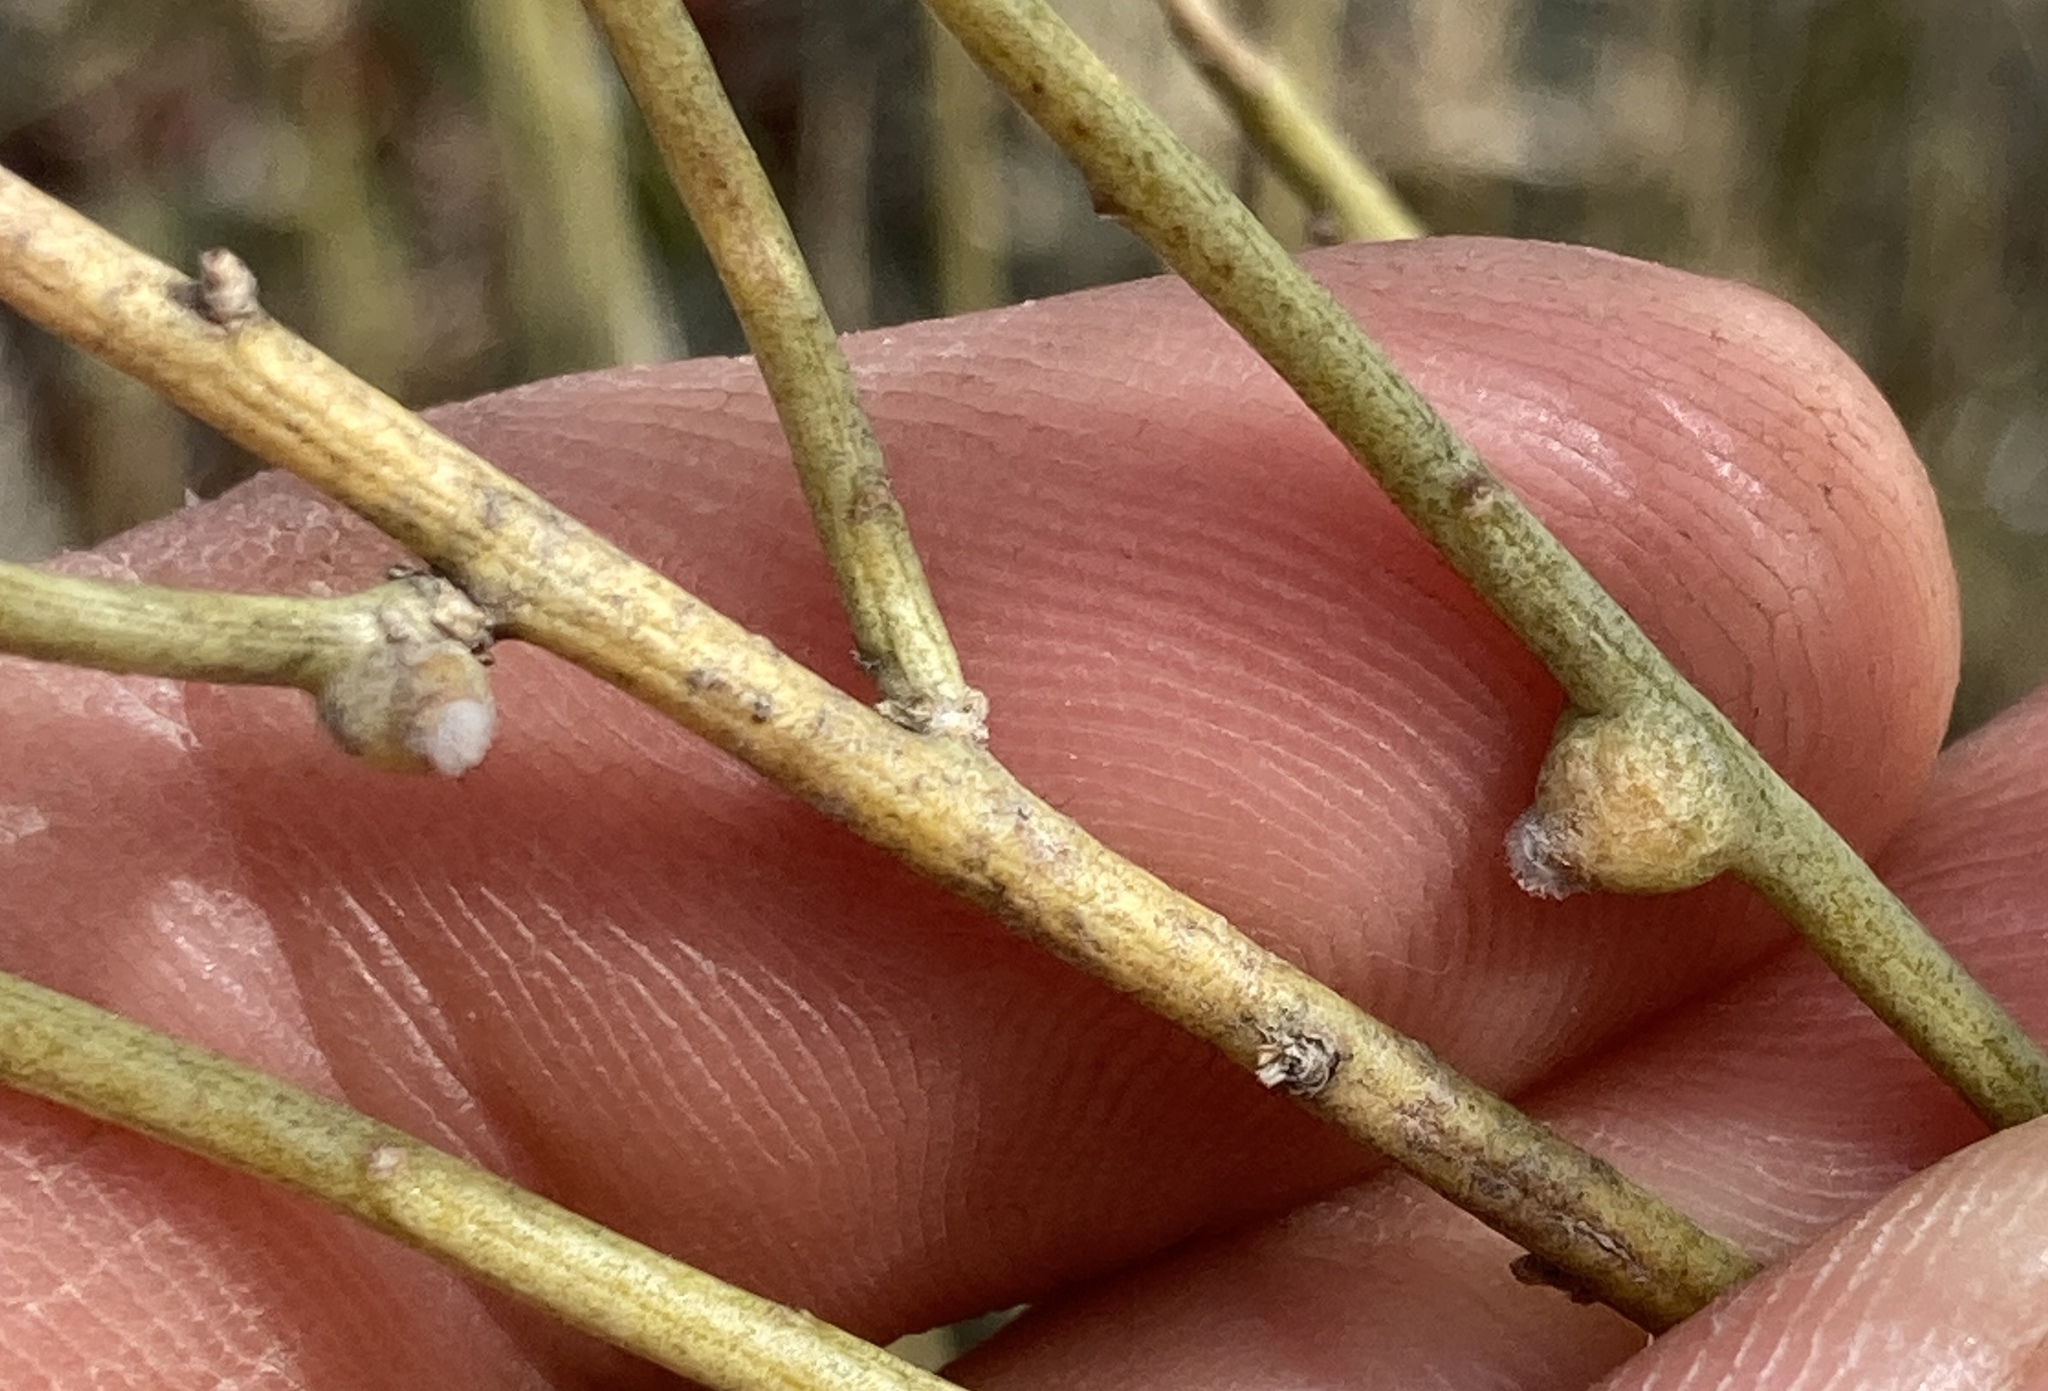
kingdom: Animalia
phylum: Arthropoda
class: Insecta
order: Diptera
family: Cecidomyiidae
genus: Rhopalomyia
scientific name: Rhopalomyia chrysothamni
